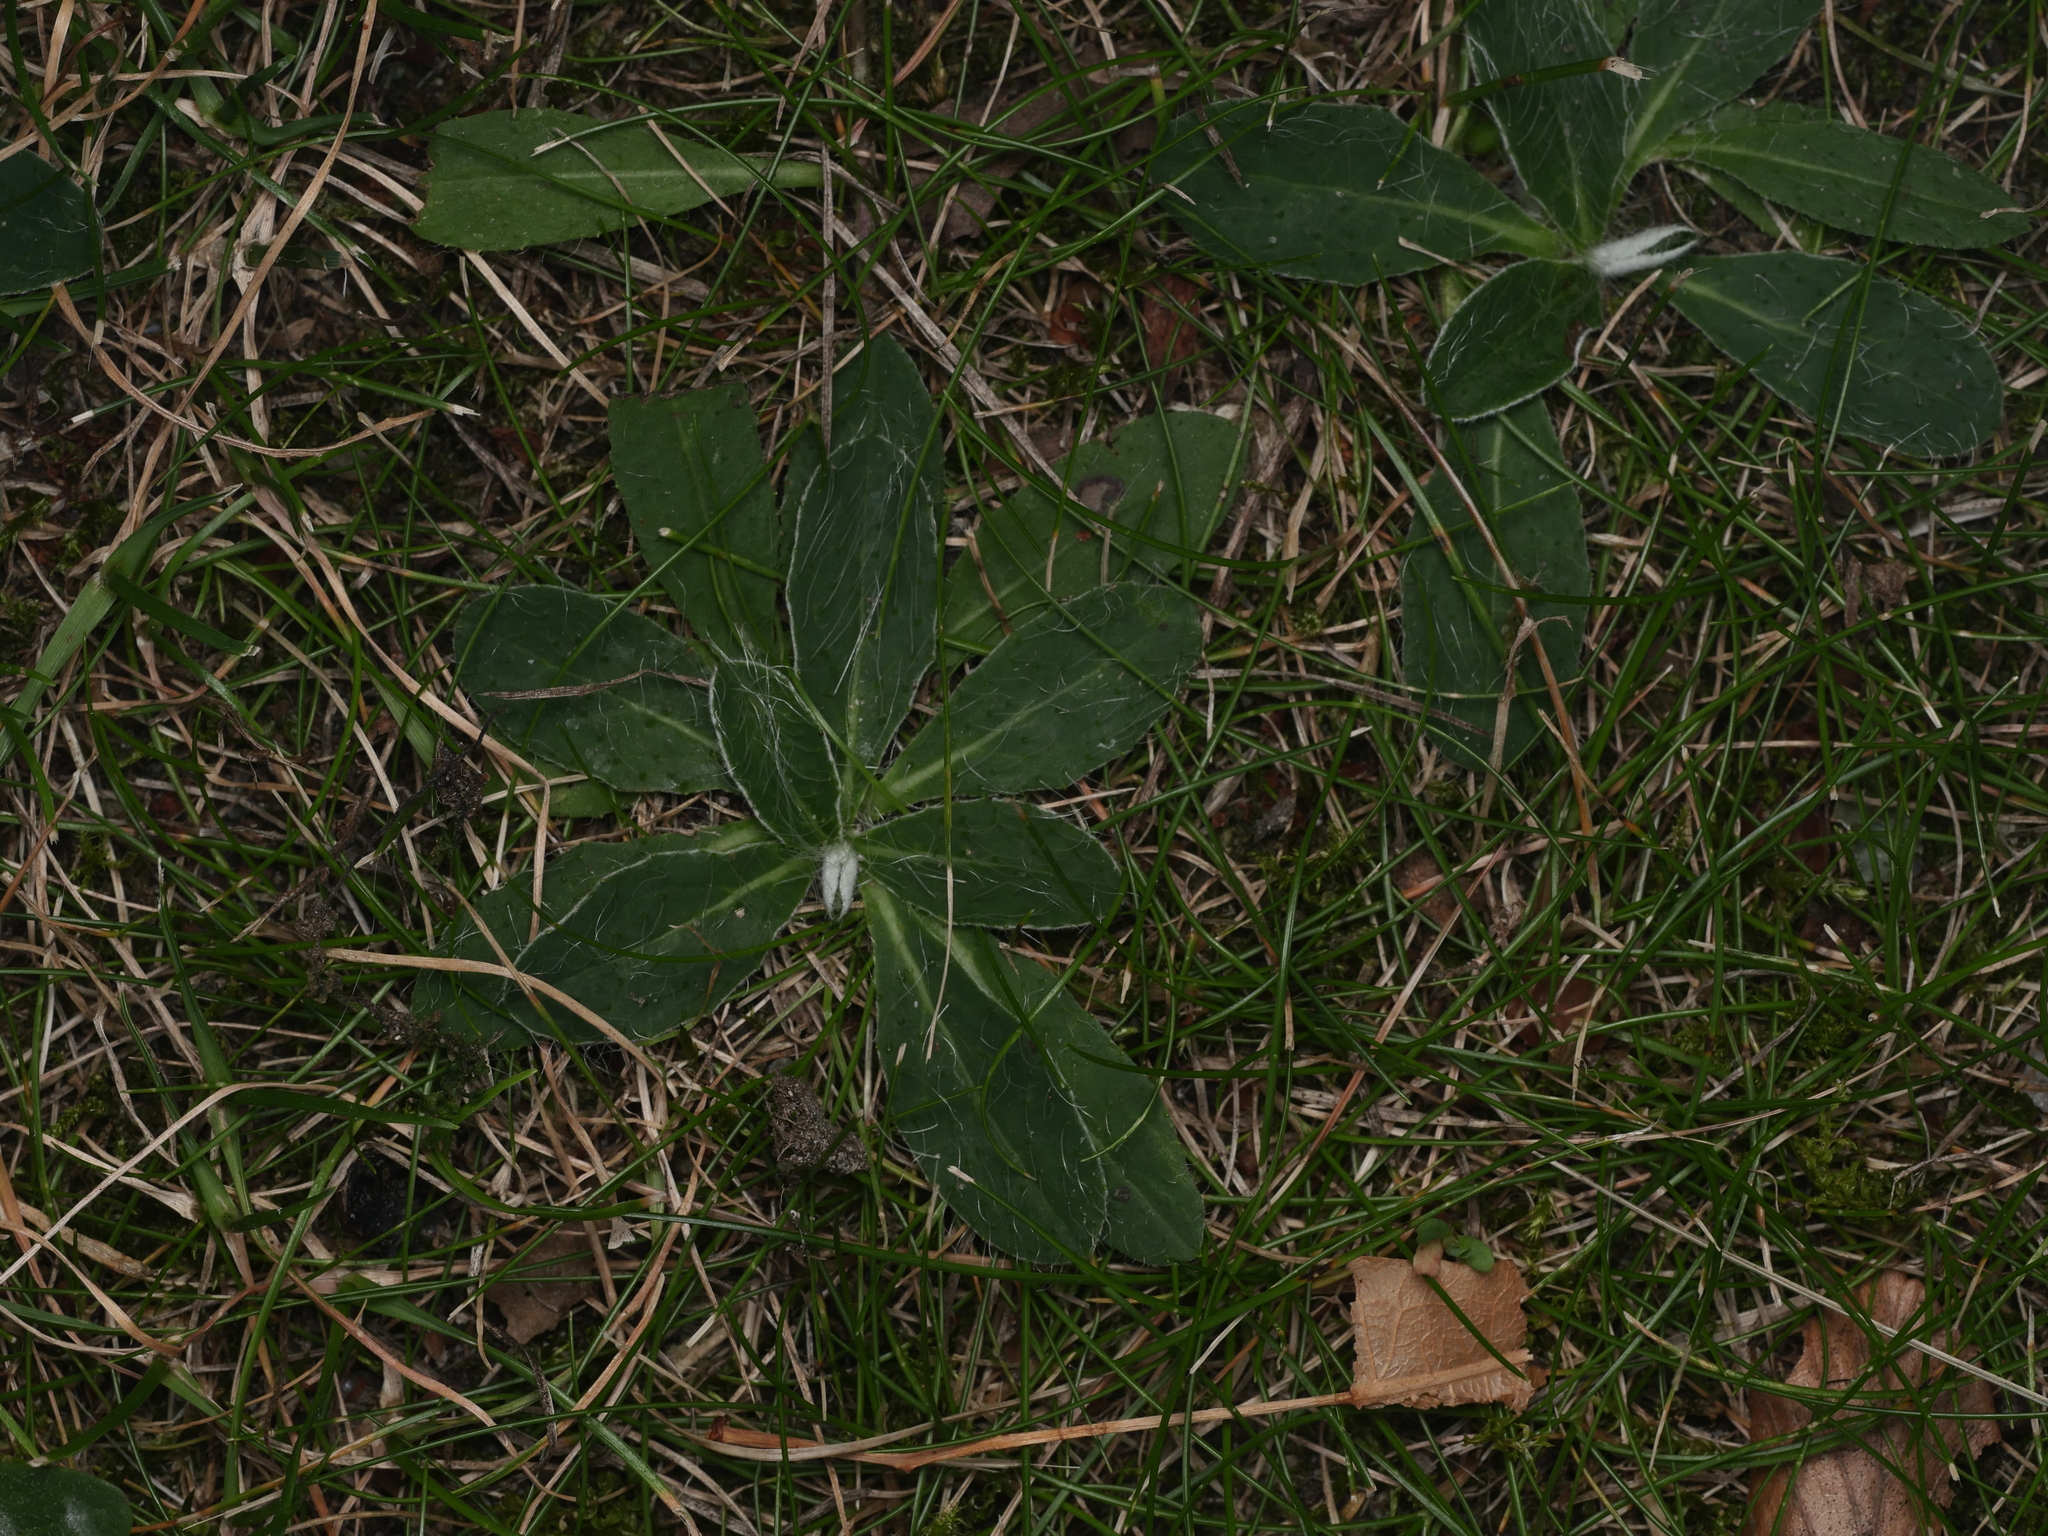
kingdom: Plantae
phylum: Tracheophyta
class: Magnoliopsida
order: Asterales
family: Asteraceae
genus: Pilosella
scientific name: Pilosella officinarum
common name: Mouse-ear hawkweed
